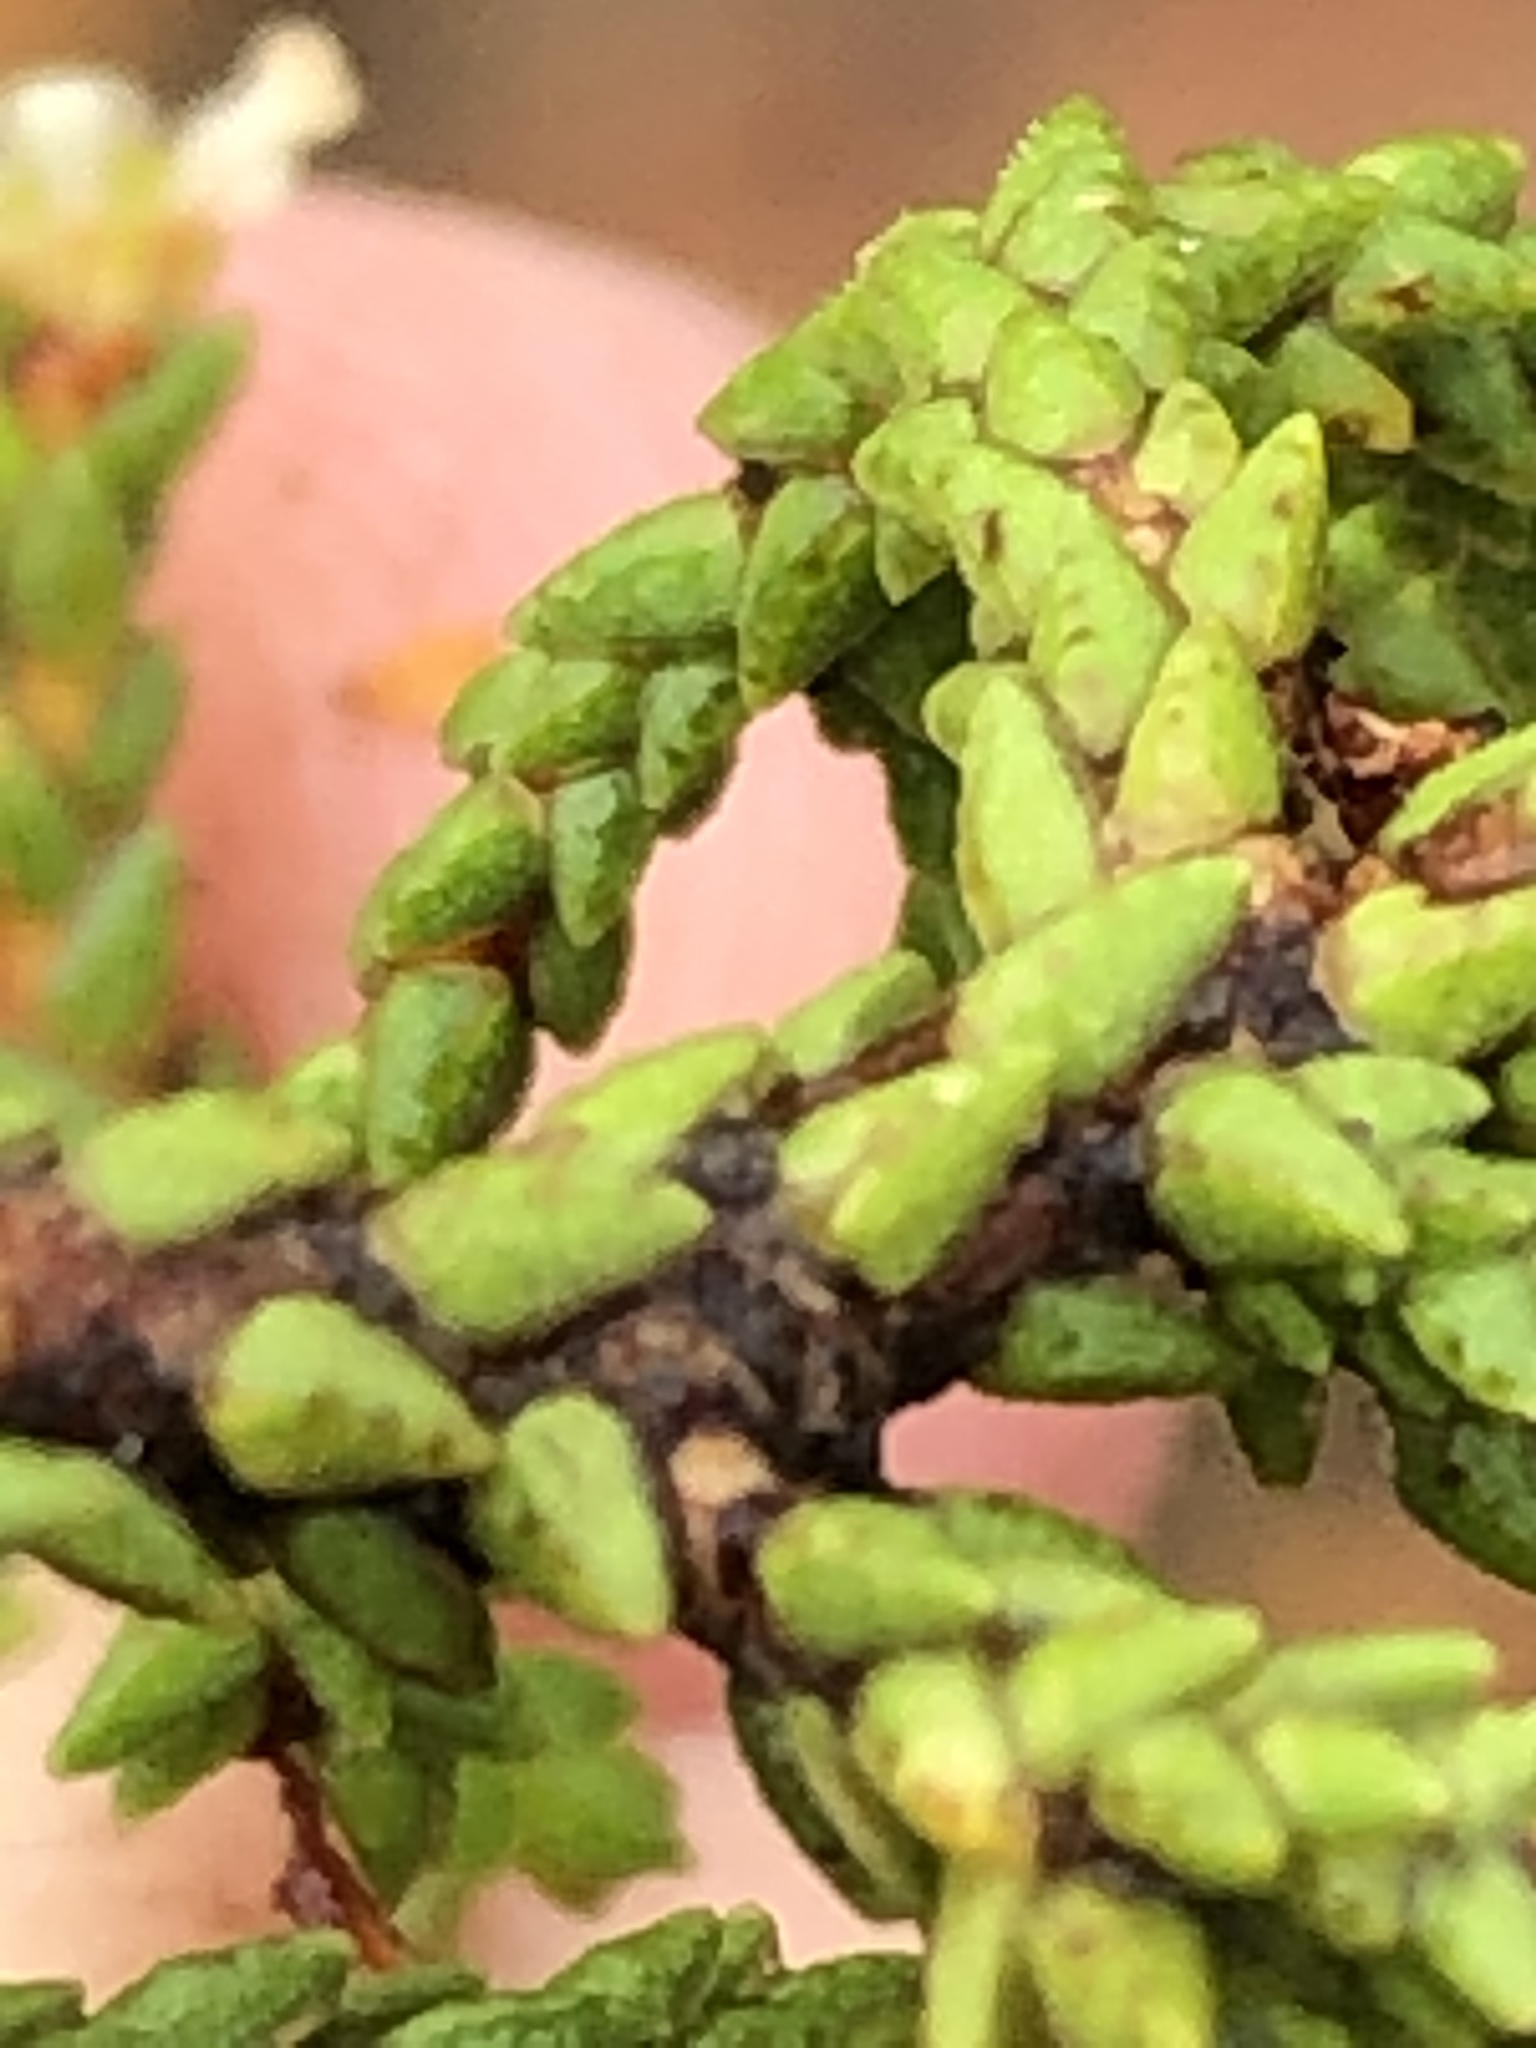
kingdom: Plantae
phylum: Tracheophyta
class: Magnoliopsida
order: Sapindales
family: Rutaceae
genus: Diosma
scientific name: Diosma apetala
